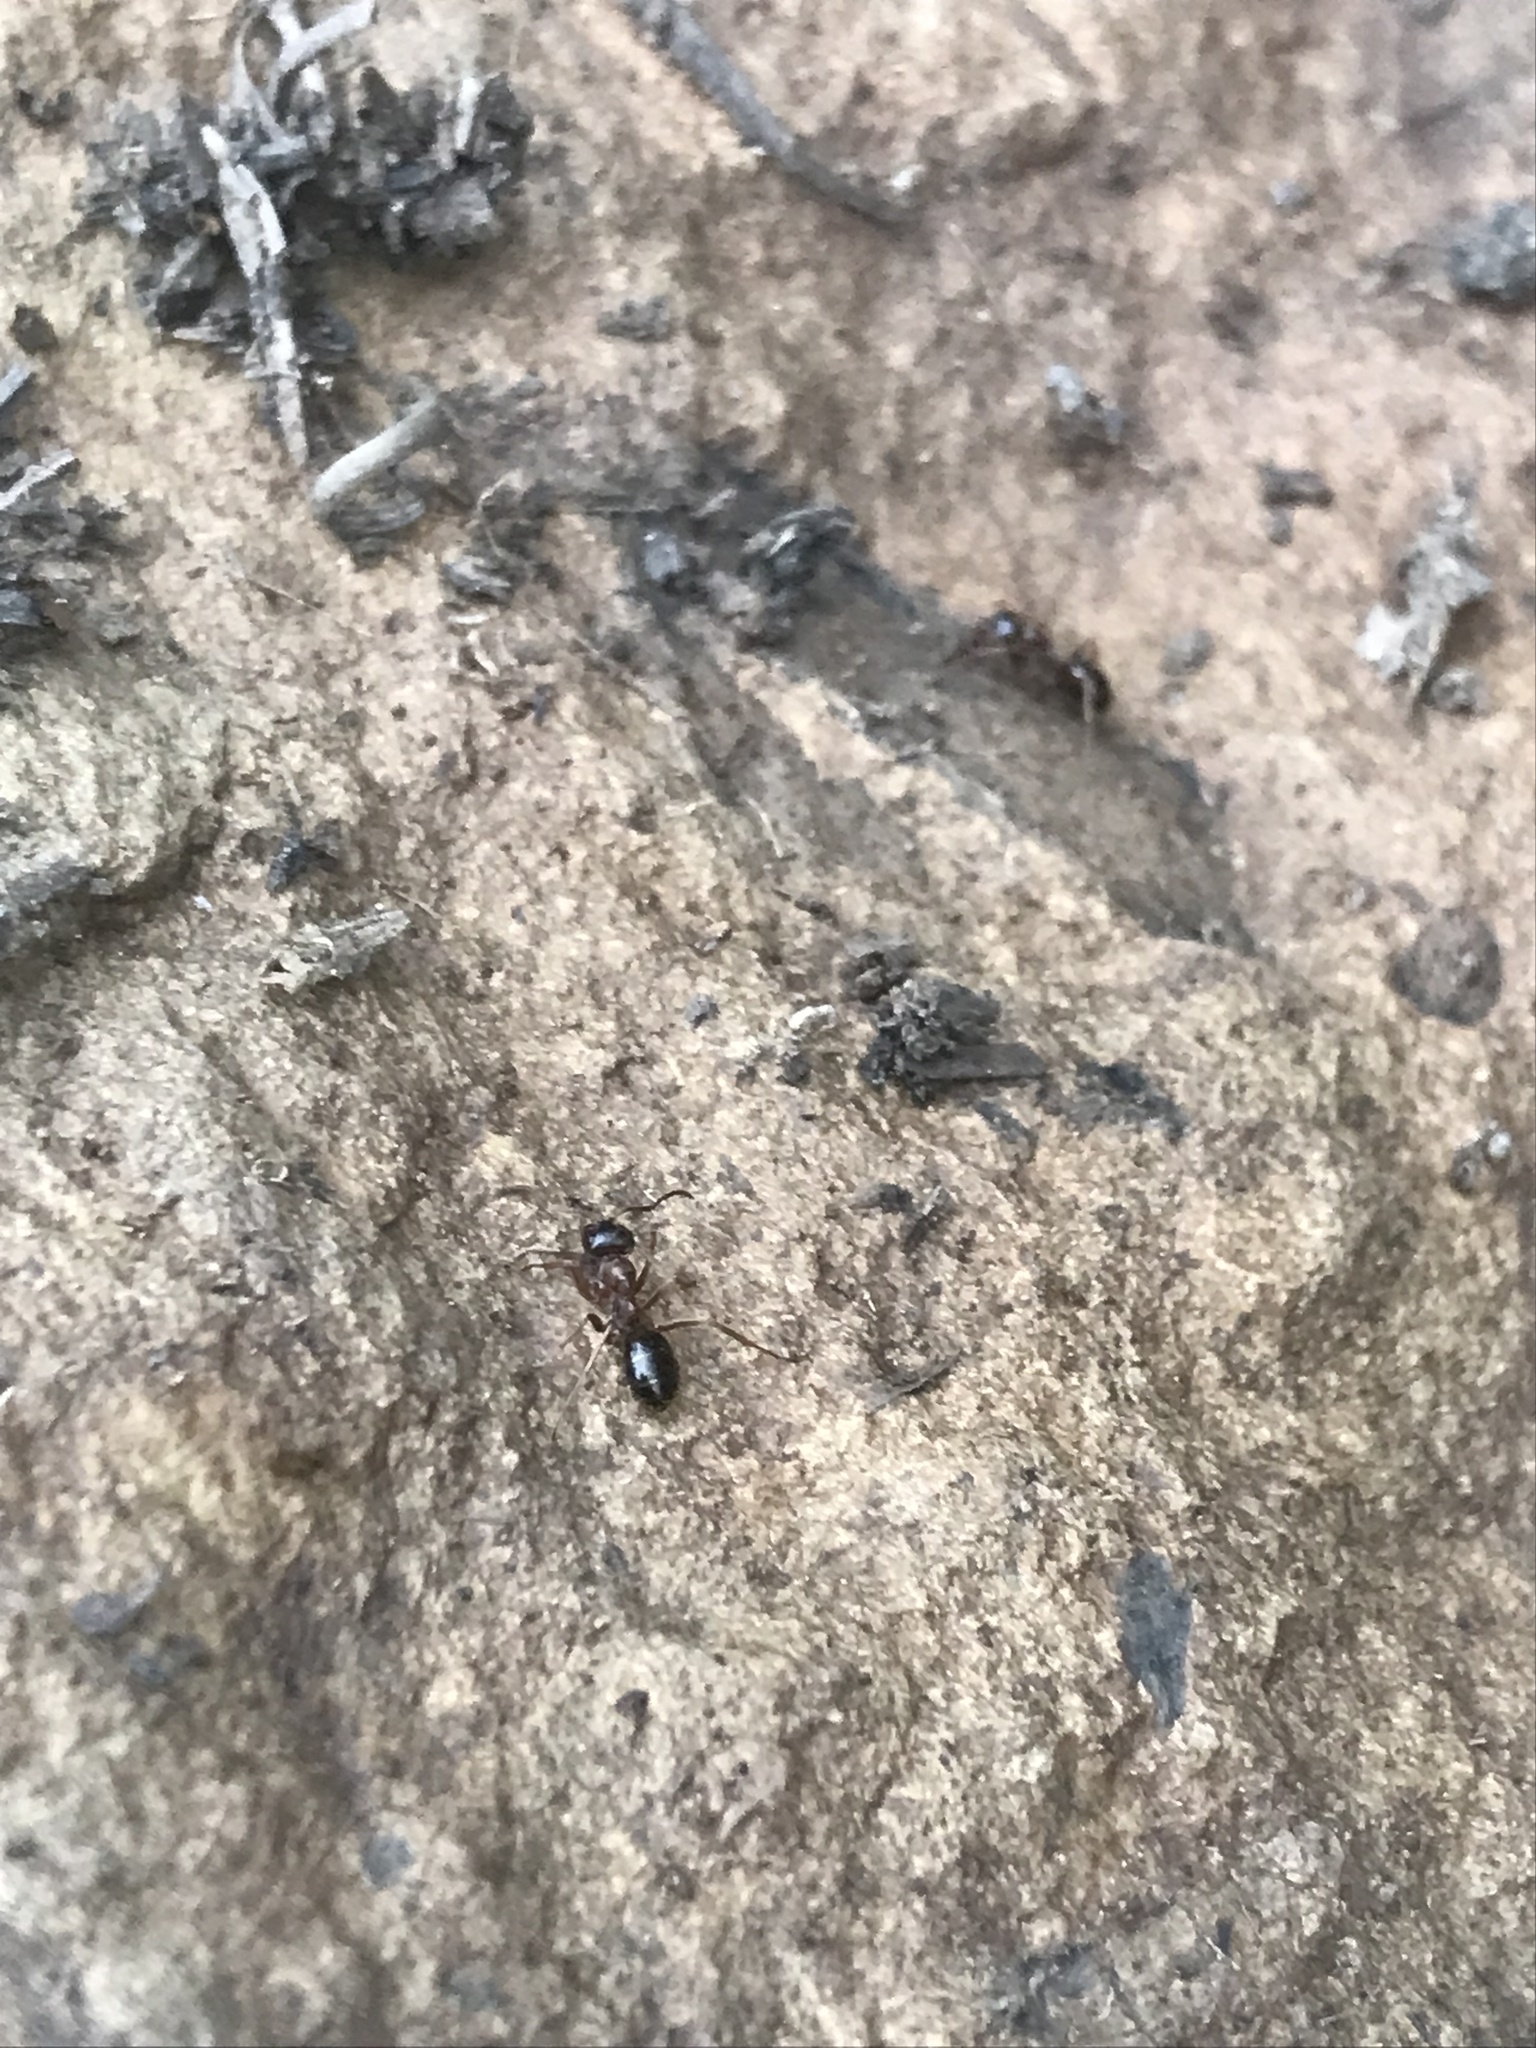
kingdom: Animalia
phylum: Arthropoda
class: Insecta
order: Hymenoptera
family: Formicidae
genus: Formica
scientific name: Formica subpolita
